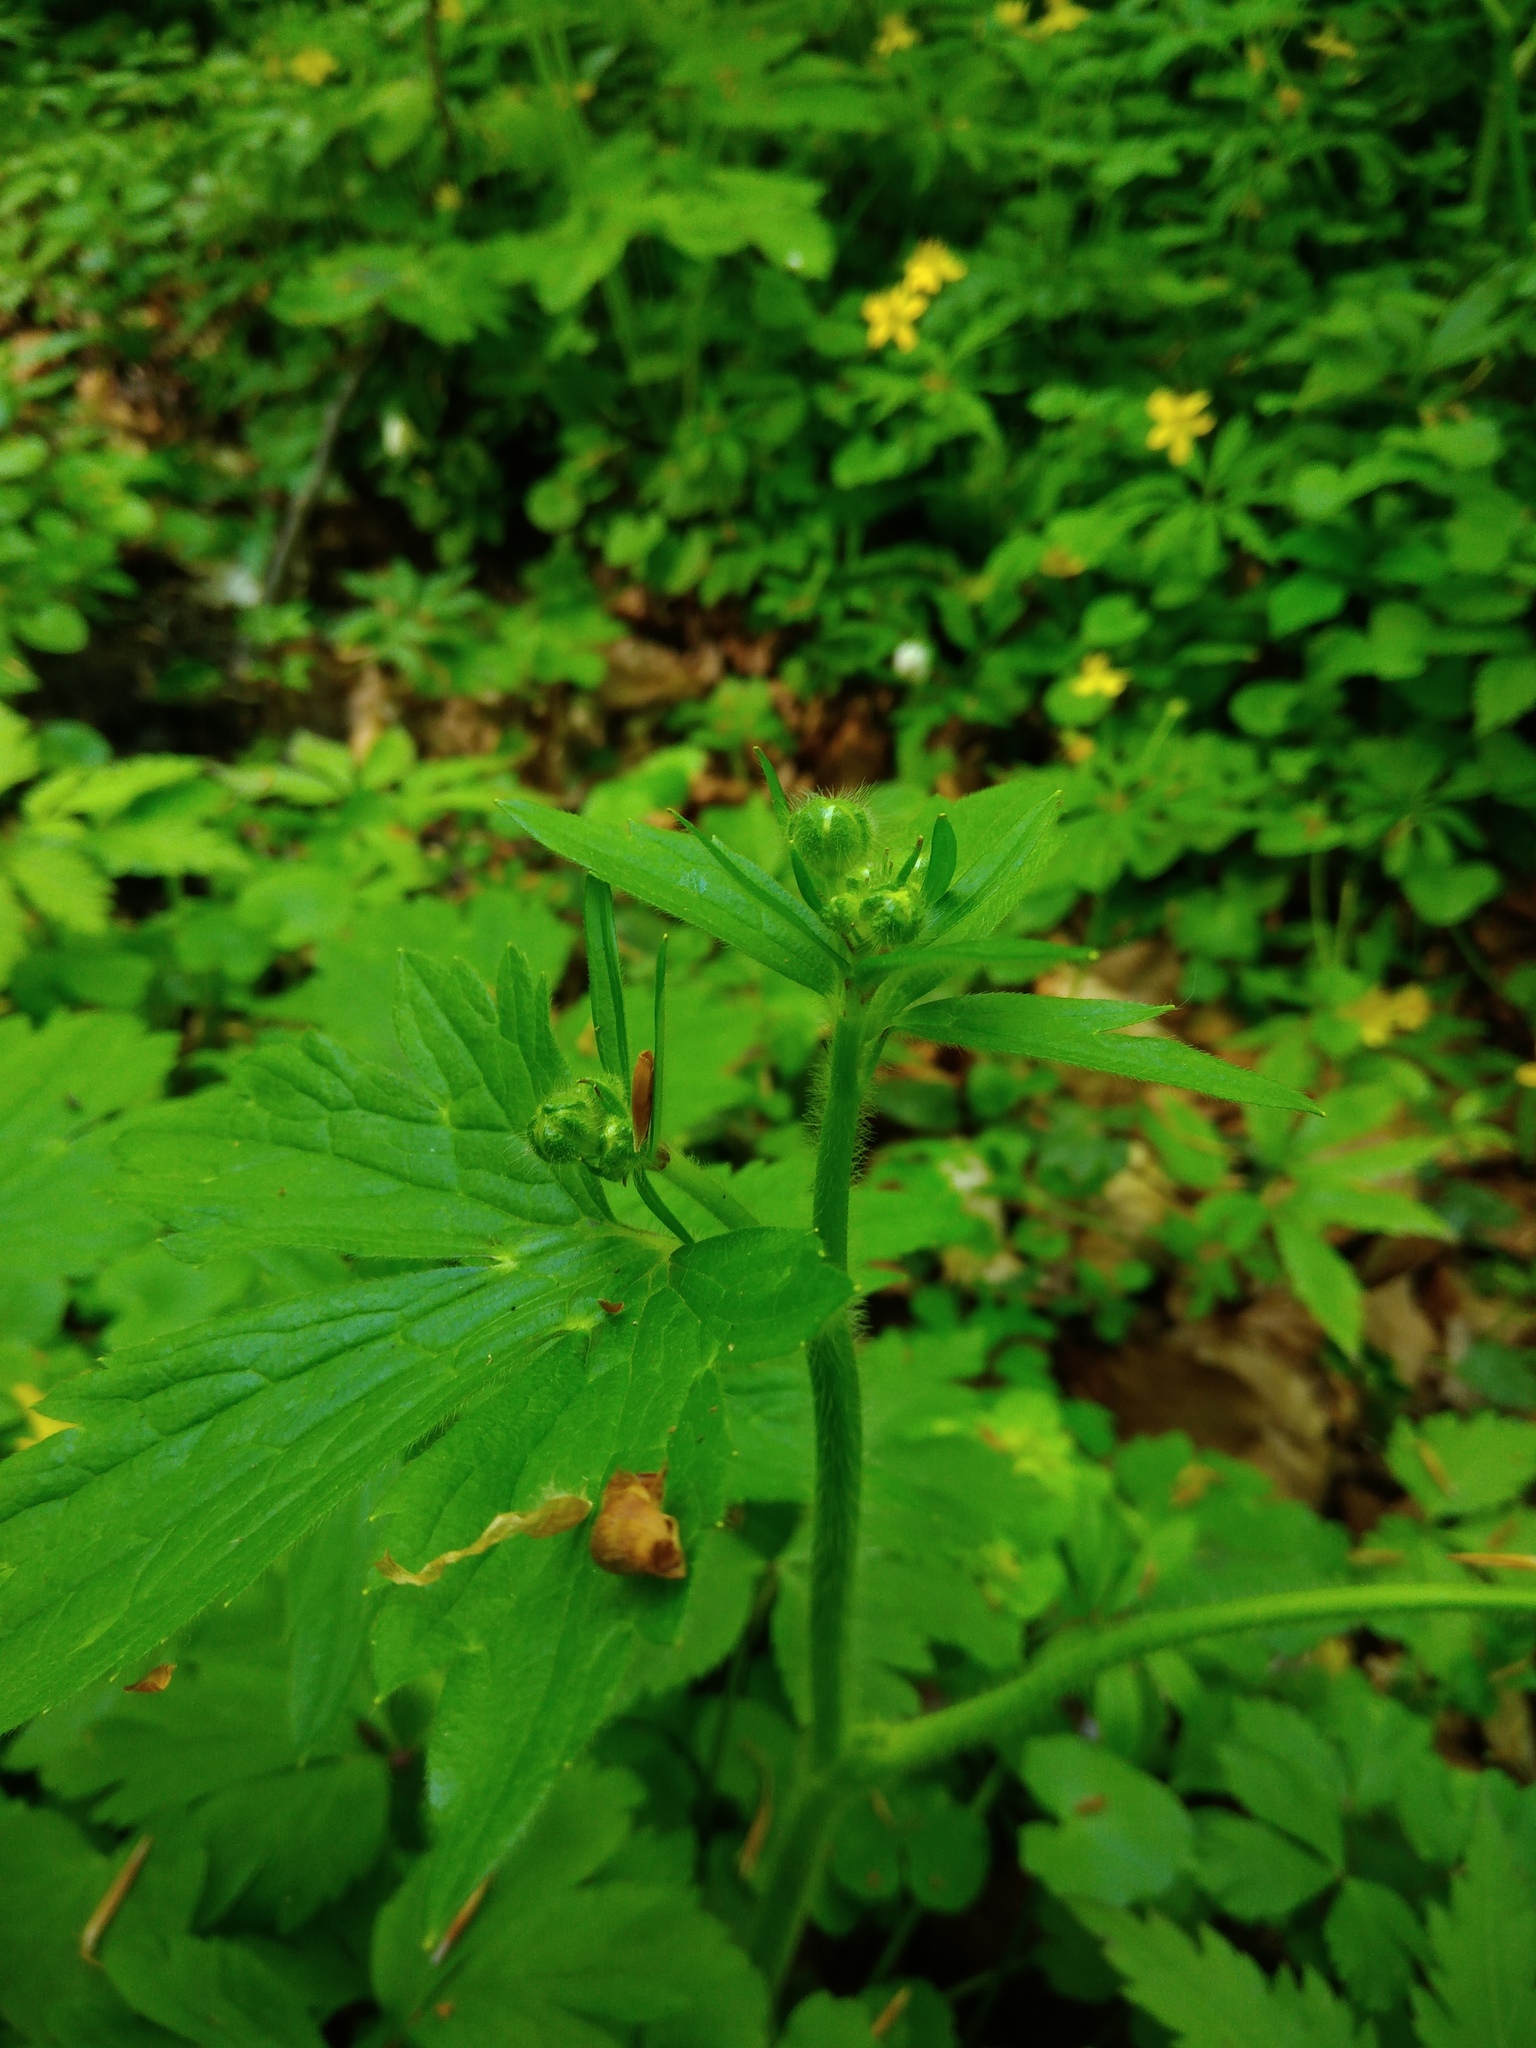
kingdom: Plantae
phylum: Tracheophyta
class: Magnoliopsida
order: Ranunculales
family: Ranunculaceae
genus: Ranunculus
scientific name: Ranunculus lanuginosus
